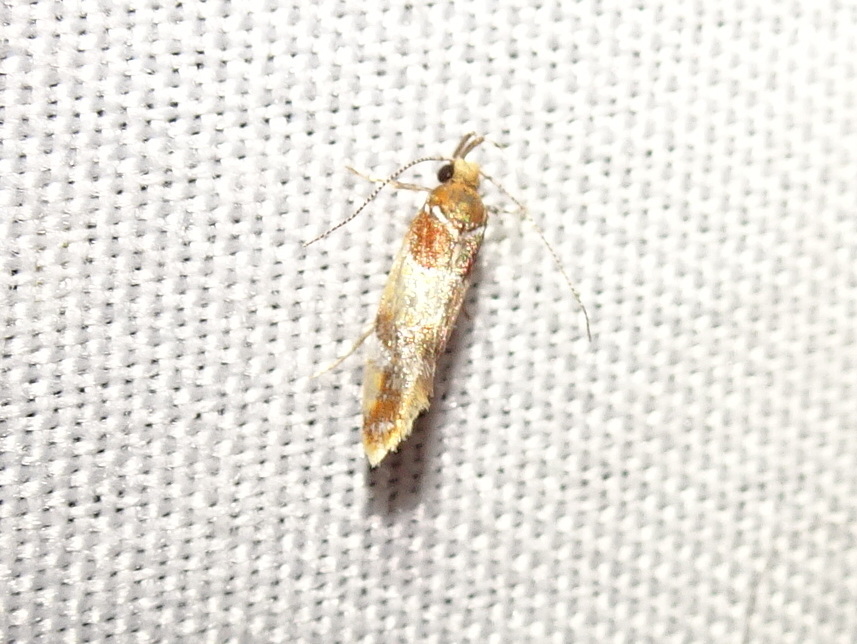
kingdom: Animalia
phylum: Arthropoda
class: Insecta
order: Lepidoptera
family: Oecophoridae
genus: Callima
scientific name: Callima argenticinctella
